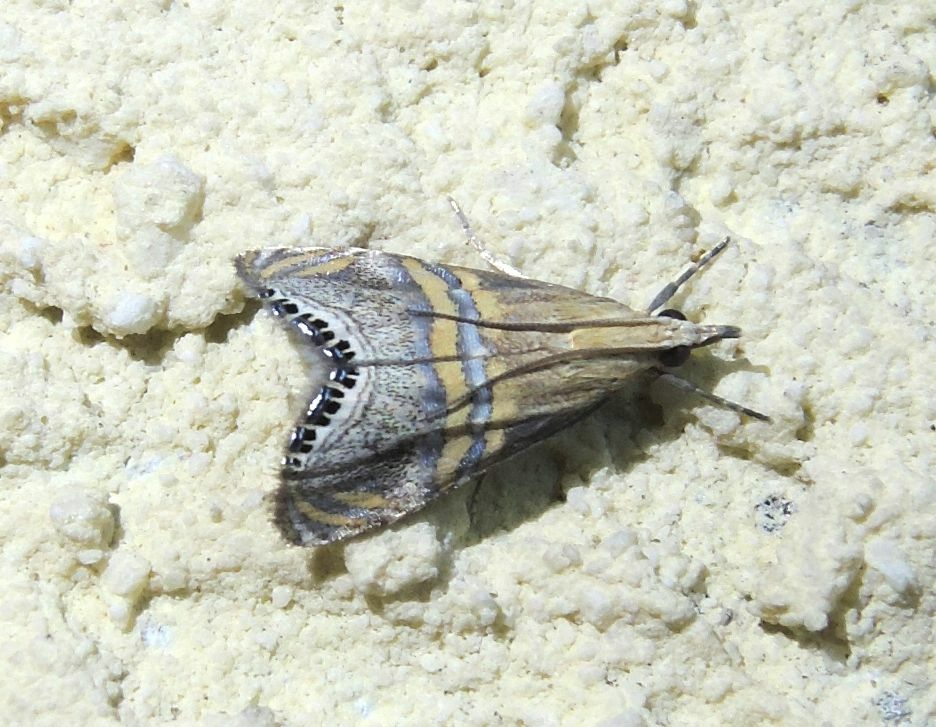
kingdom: Animalia
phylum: Arthropoda
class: Insecta
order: Lepidoptera
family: Crambidae
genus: Euchromius
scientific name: Euchromius bella
